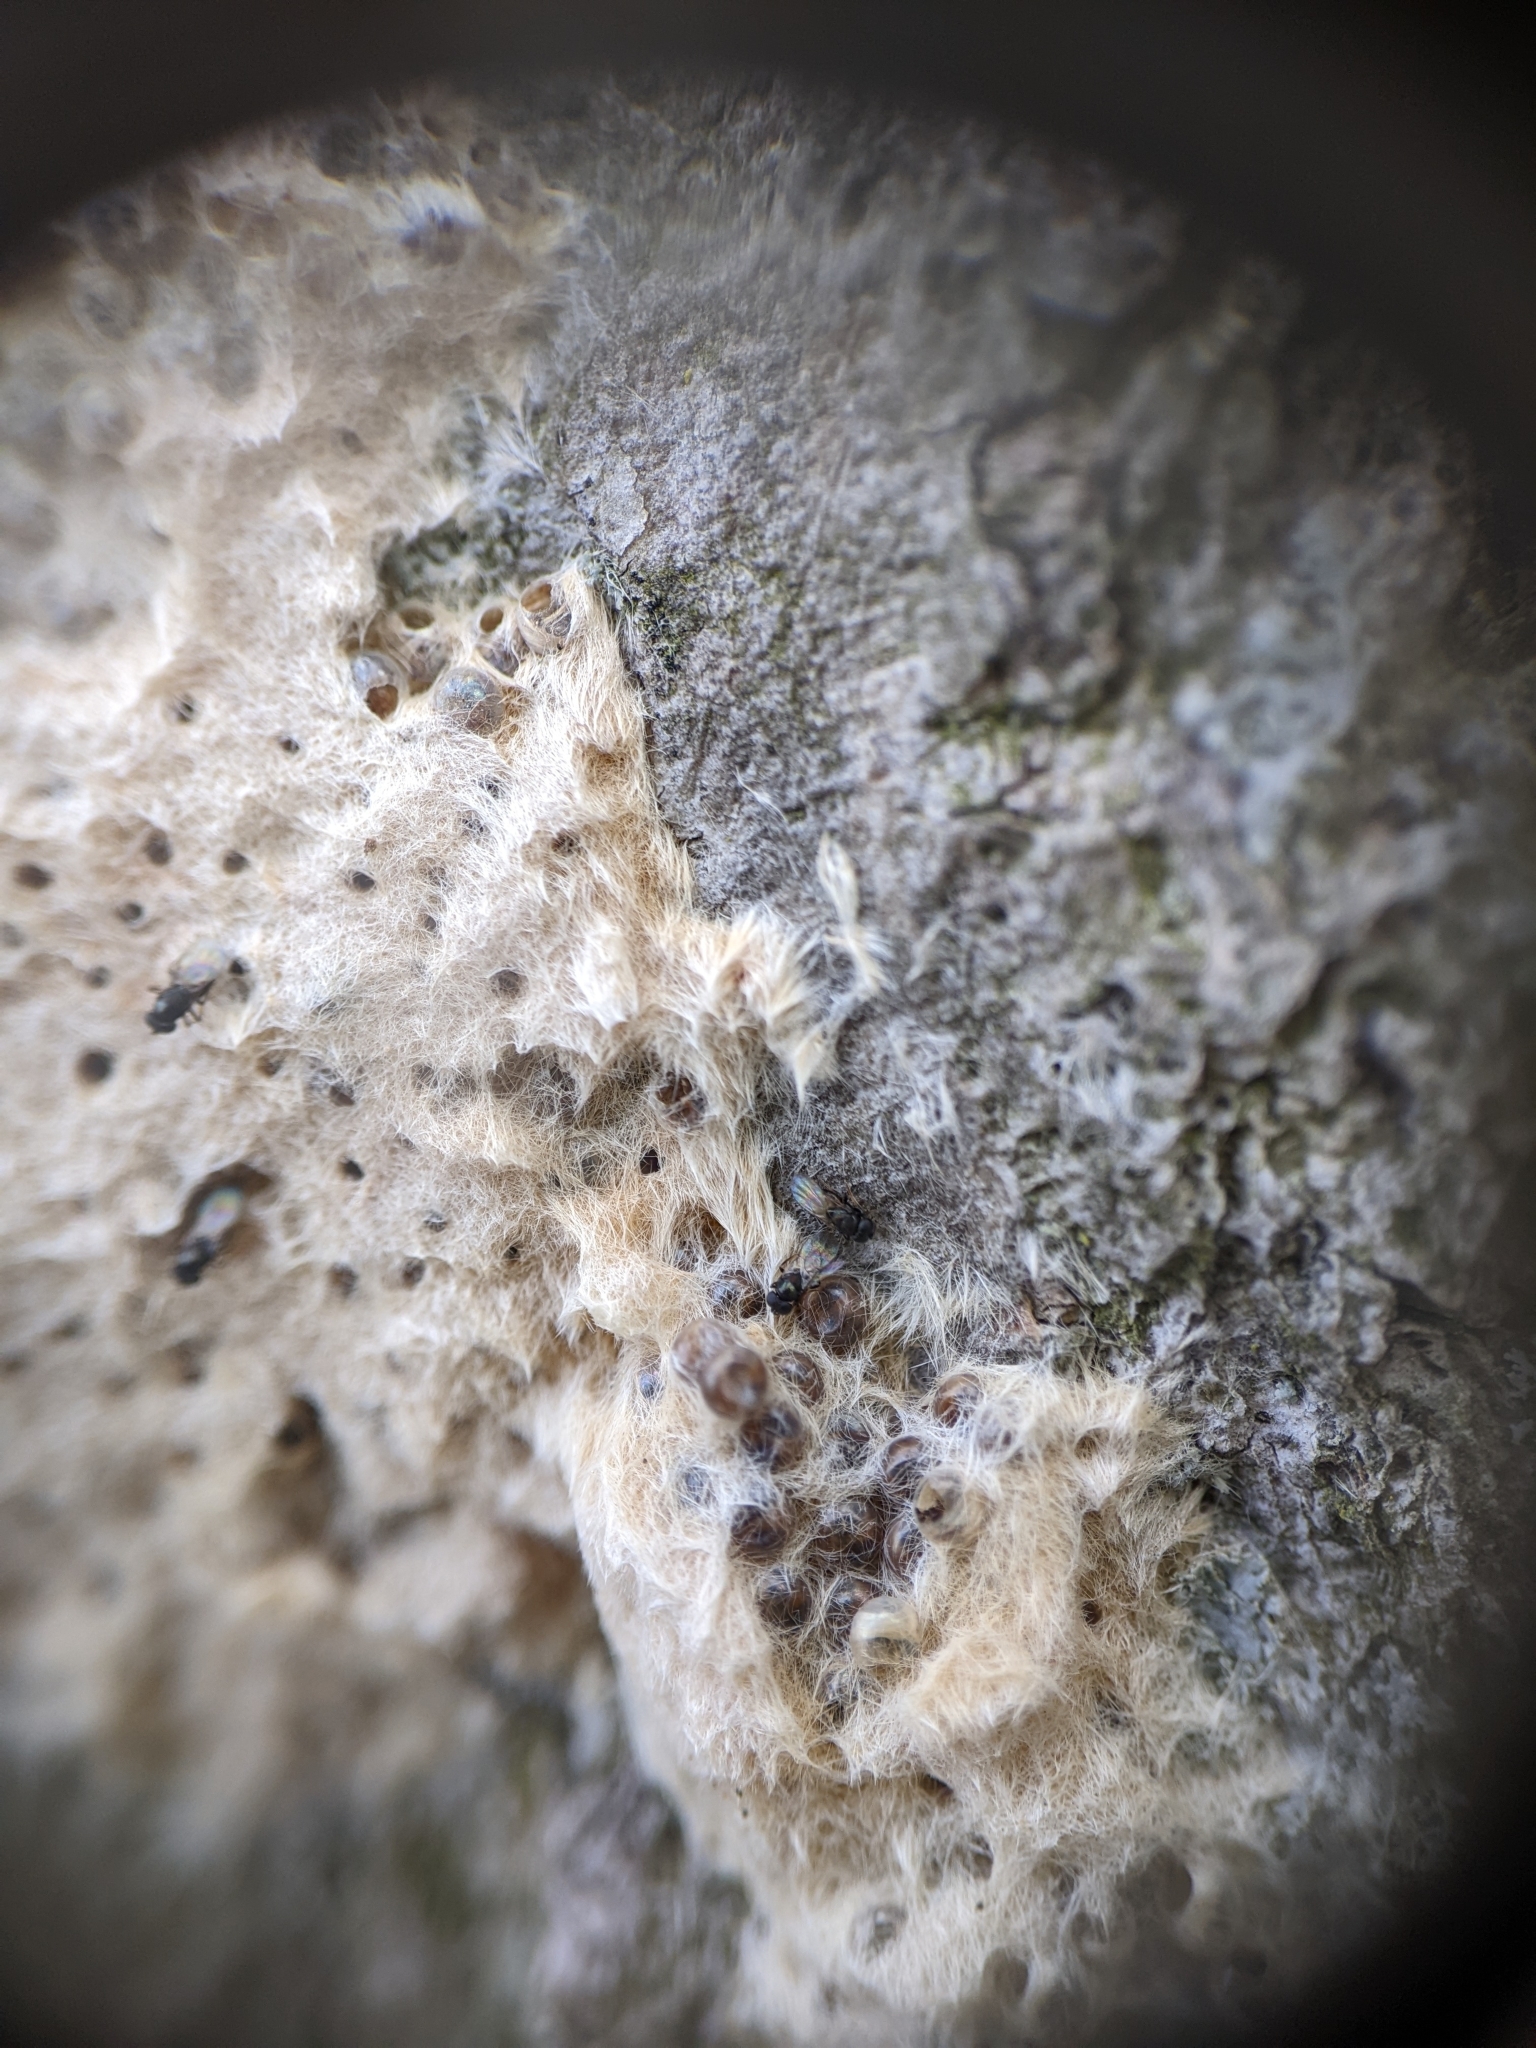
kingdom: Animalia
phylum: Arthropoda
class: Insecta
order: Hymenoptera
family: Encyrtidae
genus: Ooencyrtus
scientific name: Ooencyrtus kuvanae
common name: Wasp
